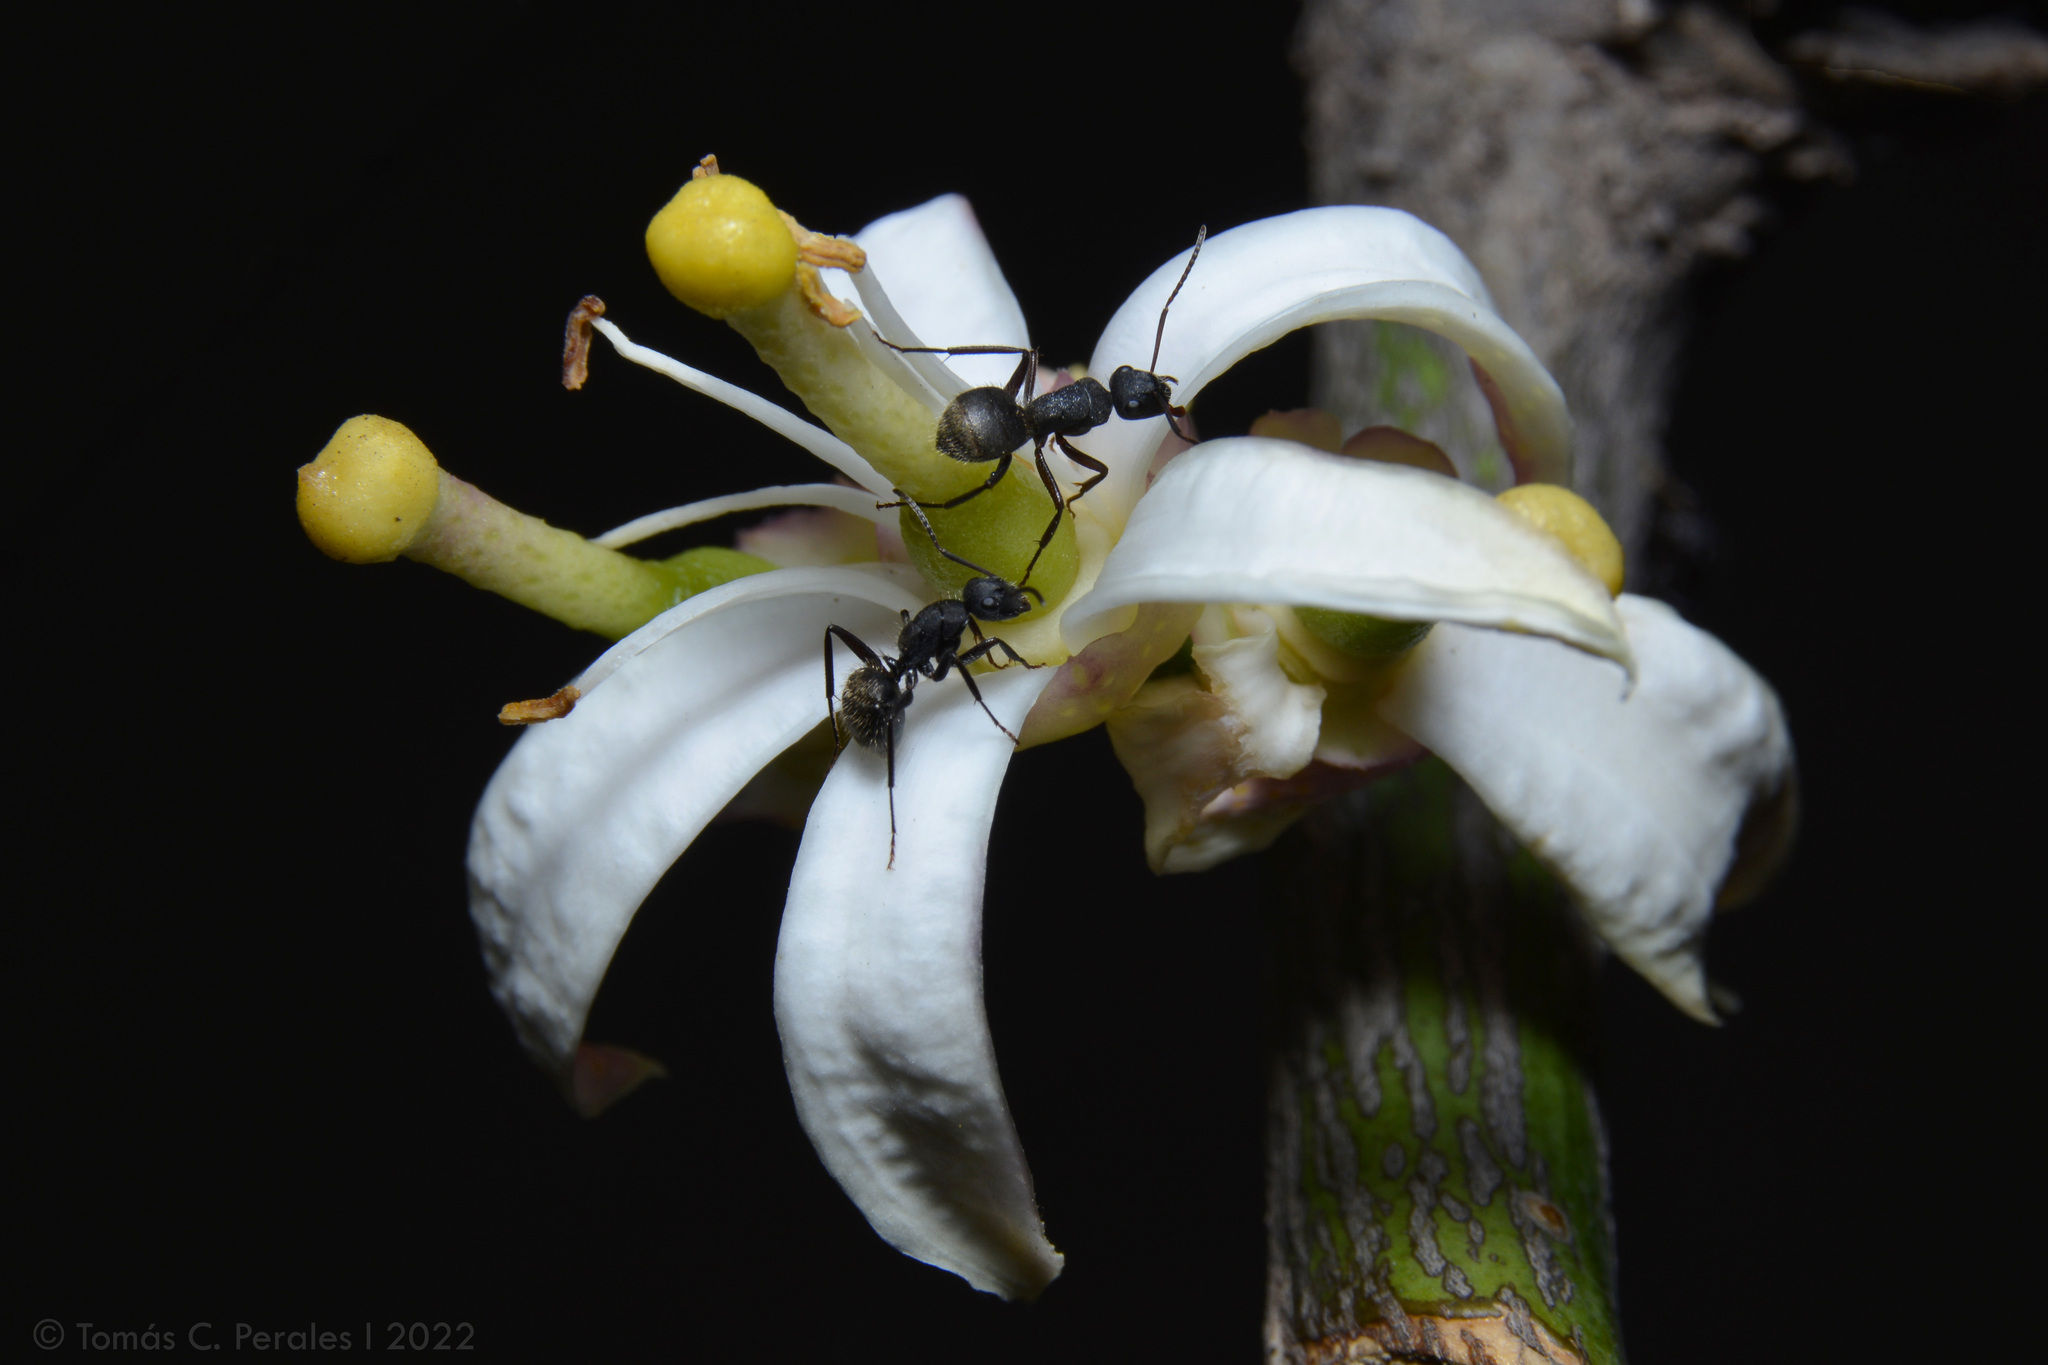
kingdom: Animalia
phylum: Arthropoda
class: Insecta
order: Hymenoptera
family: Formicidae
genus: Camponotus
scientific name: Camponotus mus
